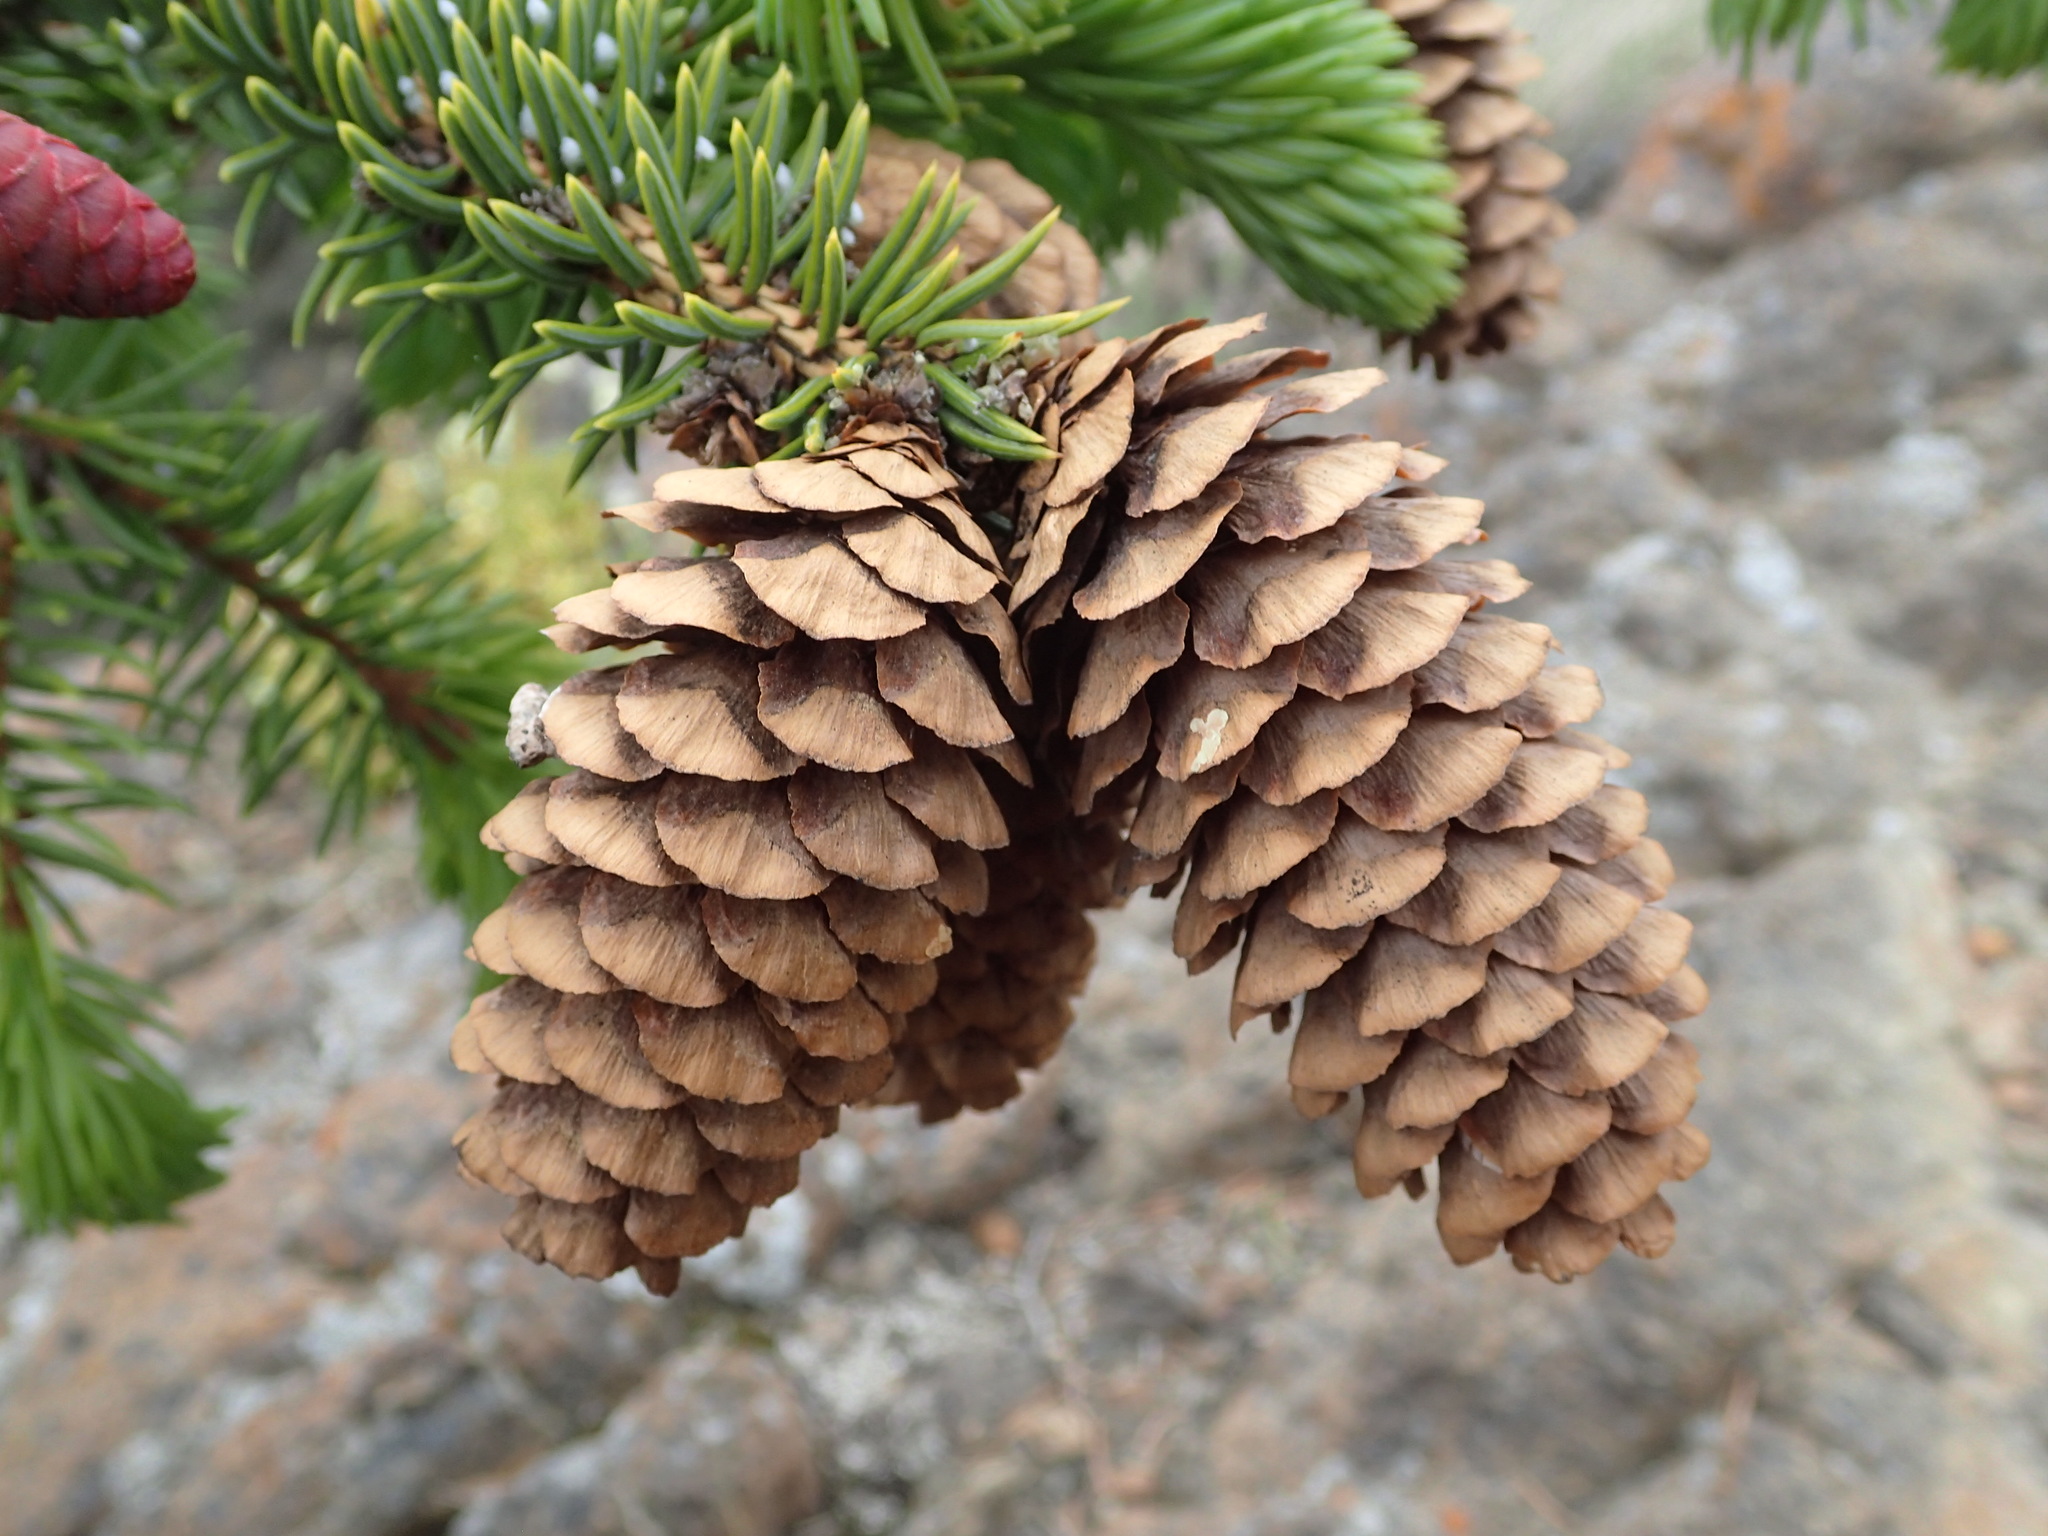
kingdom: Plantae
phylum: Tracheophyta
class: Pinopsida
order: Pinales
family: Pinaceae
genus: Picea
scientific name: Picea lutzii
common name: Lutz spruce
